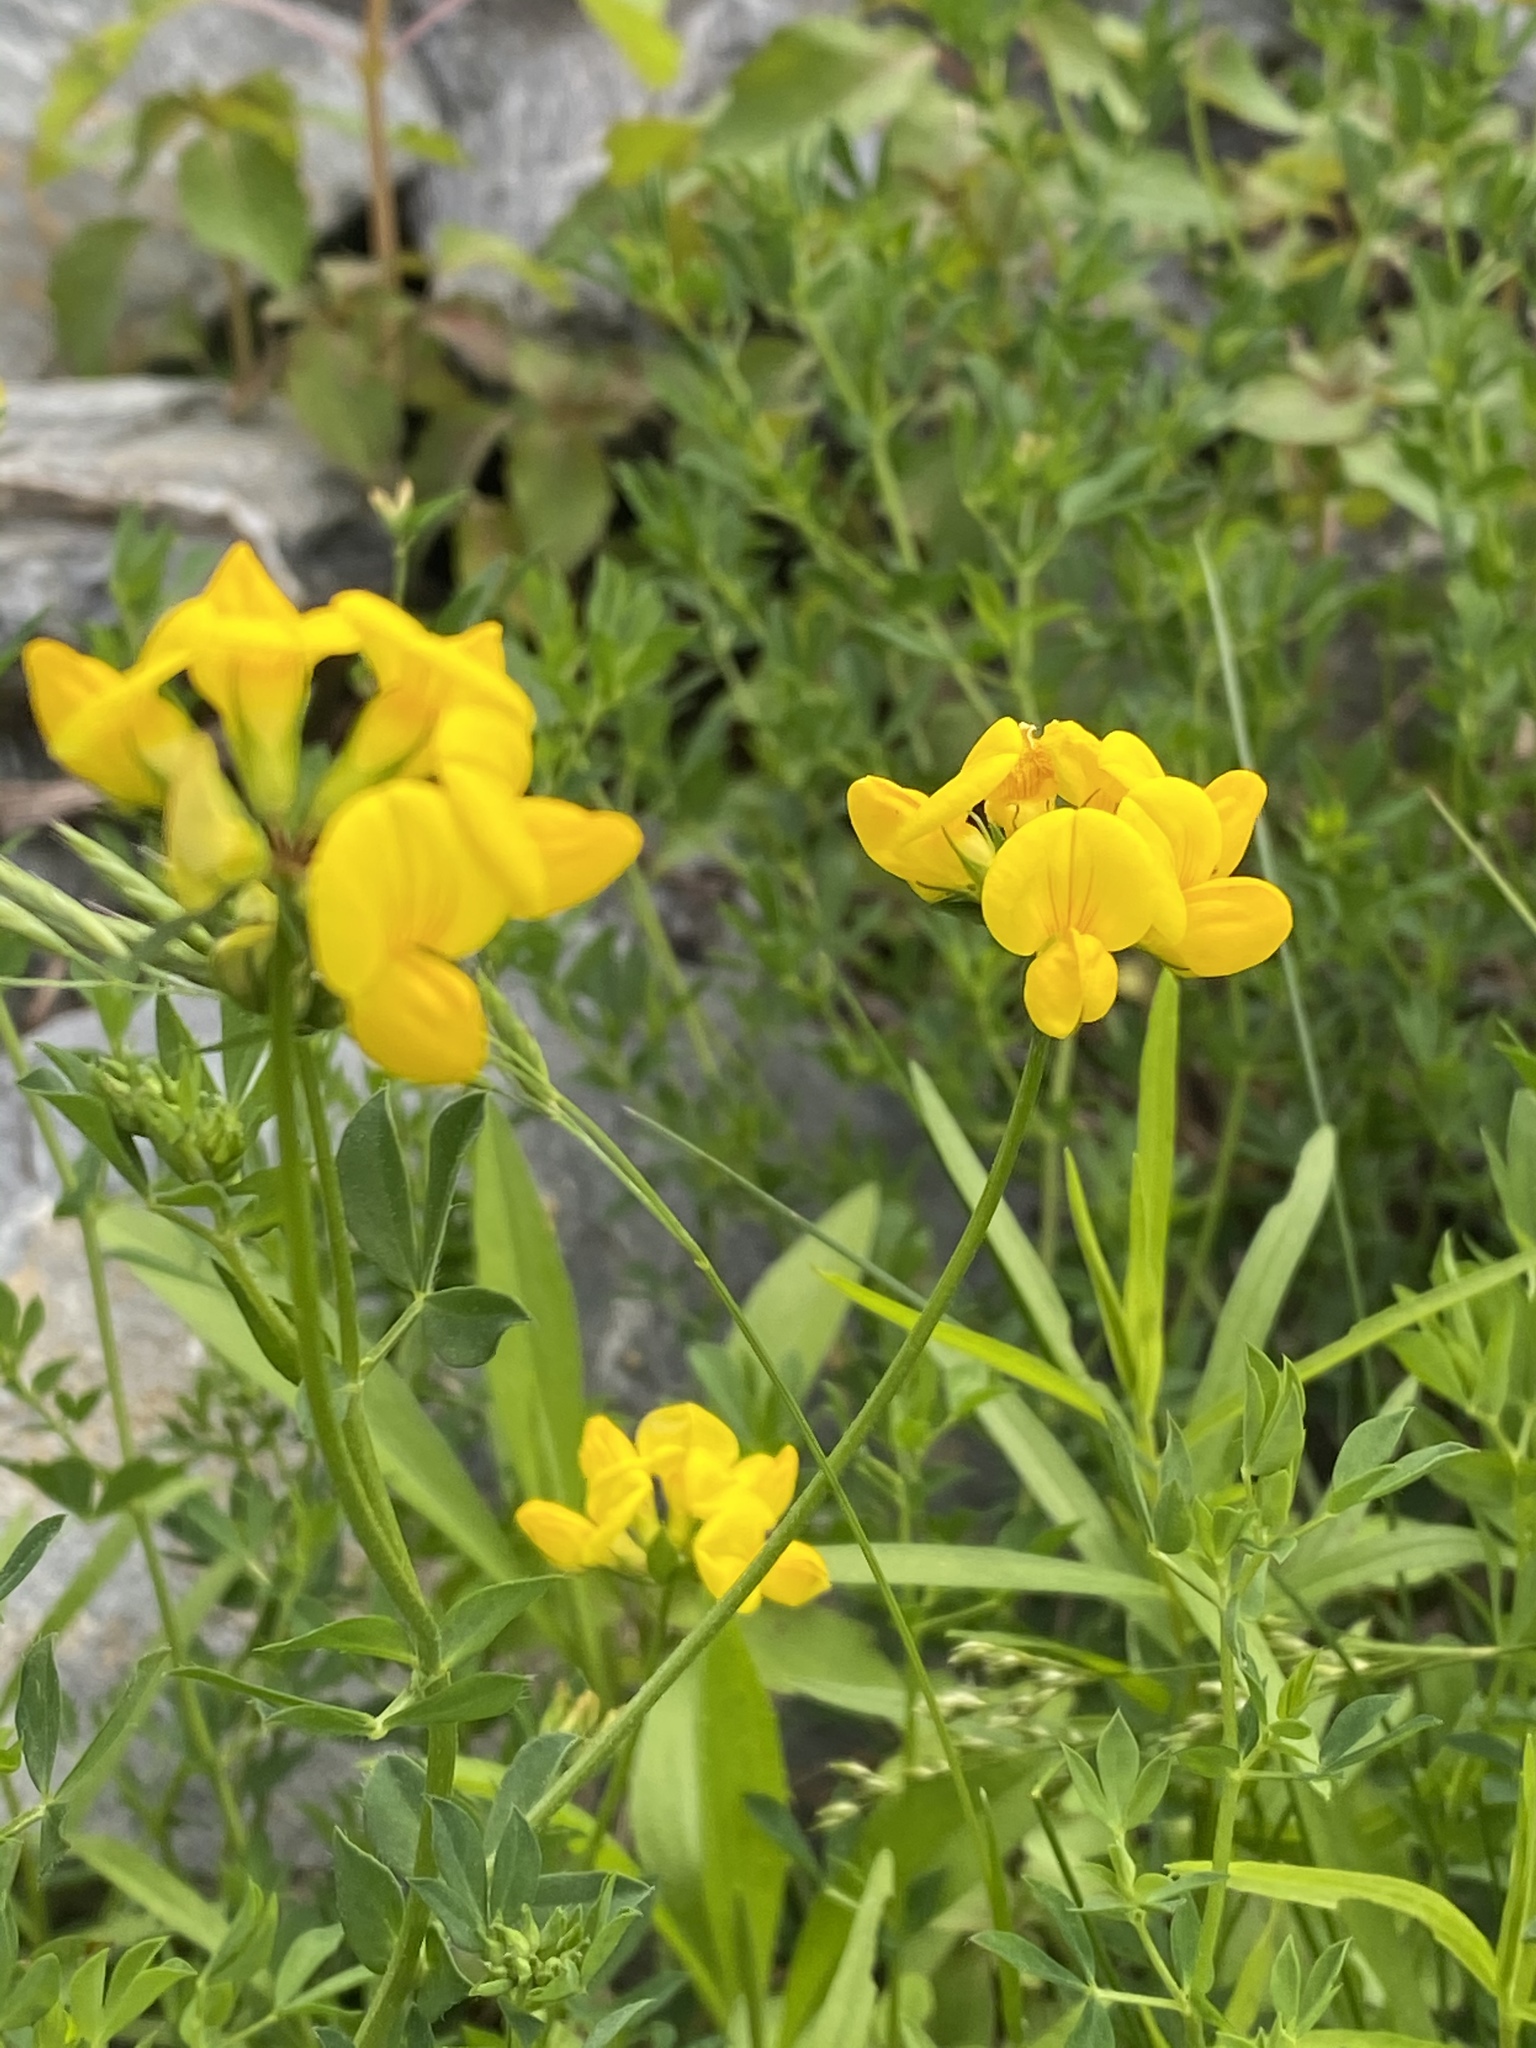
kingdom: Plantae
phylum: Tracheophyta
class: Magnoliopsida
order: Fabales
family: Fabaceae
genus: Lotus
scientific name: Lotus corniculatus
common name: Common bird's-foot-trefoil
